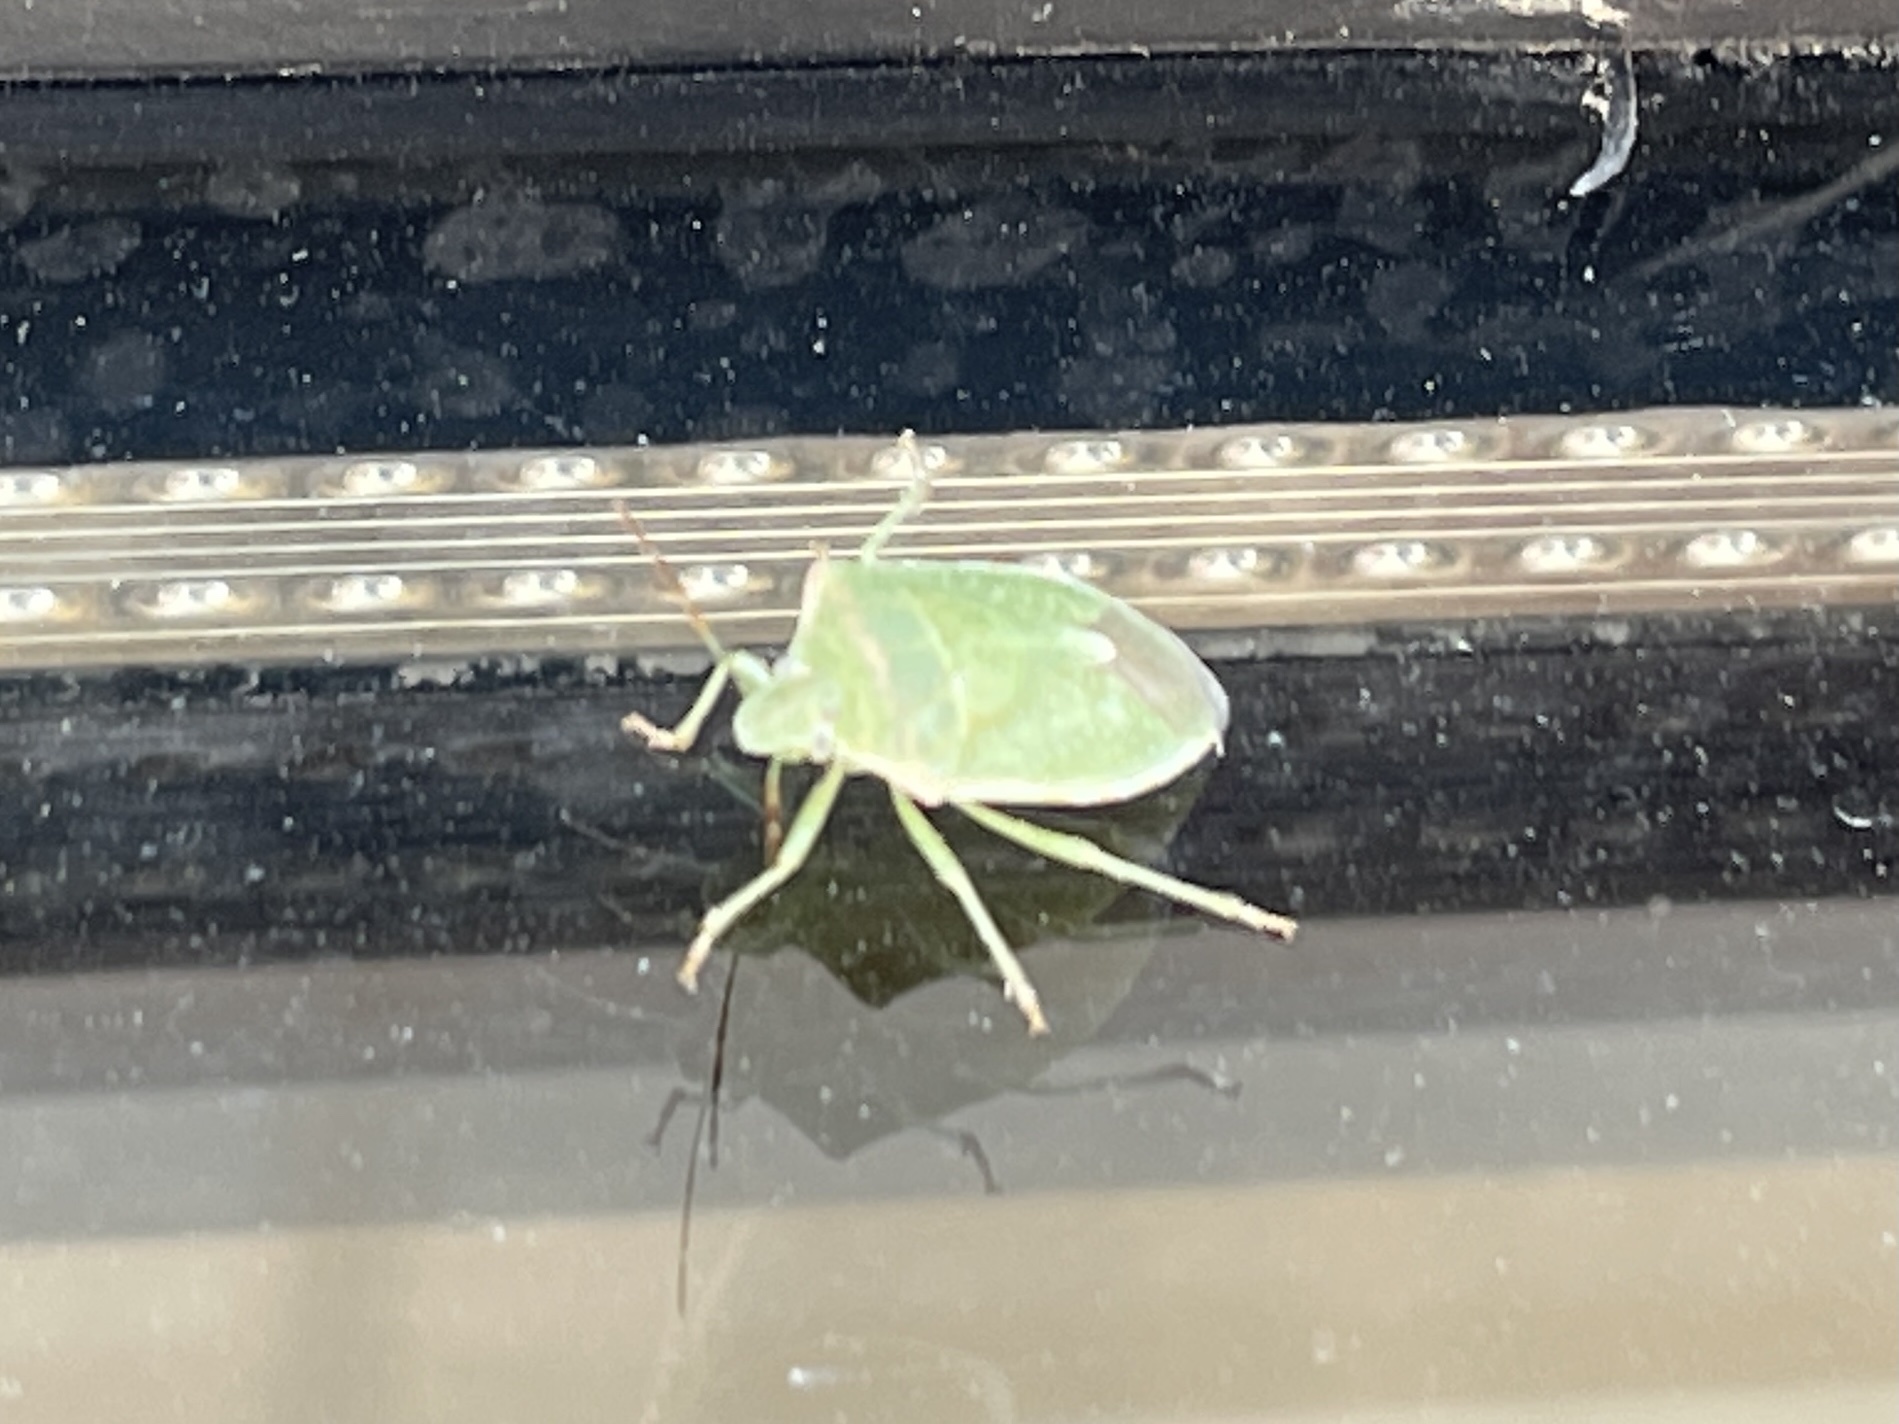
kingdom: Animalia
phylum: Arthropoda
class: Insecta
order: Hemiptera
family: Pentatomidae
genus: Thyanta
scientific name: Thyanta accerra
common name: Stink bug
